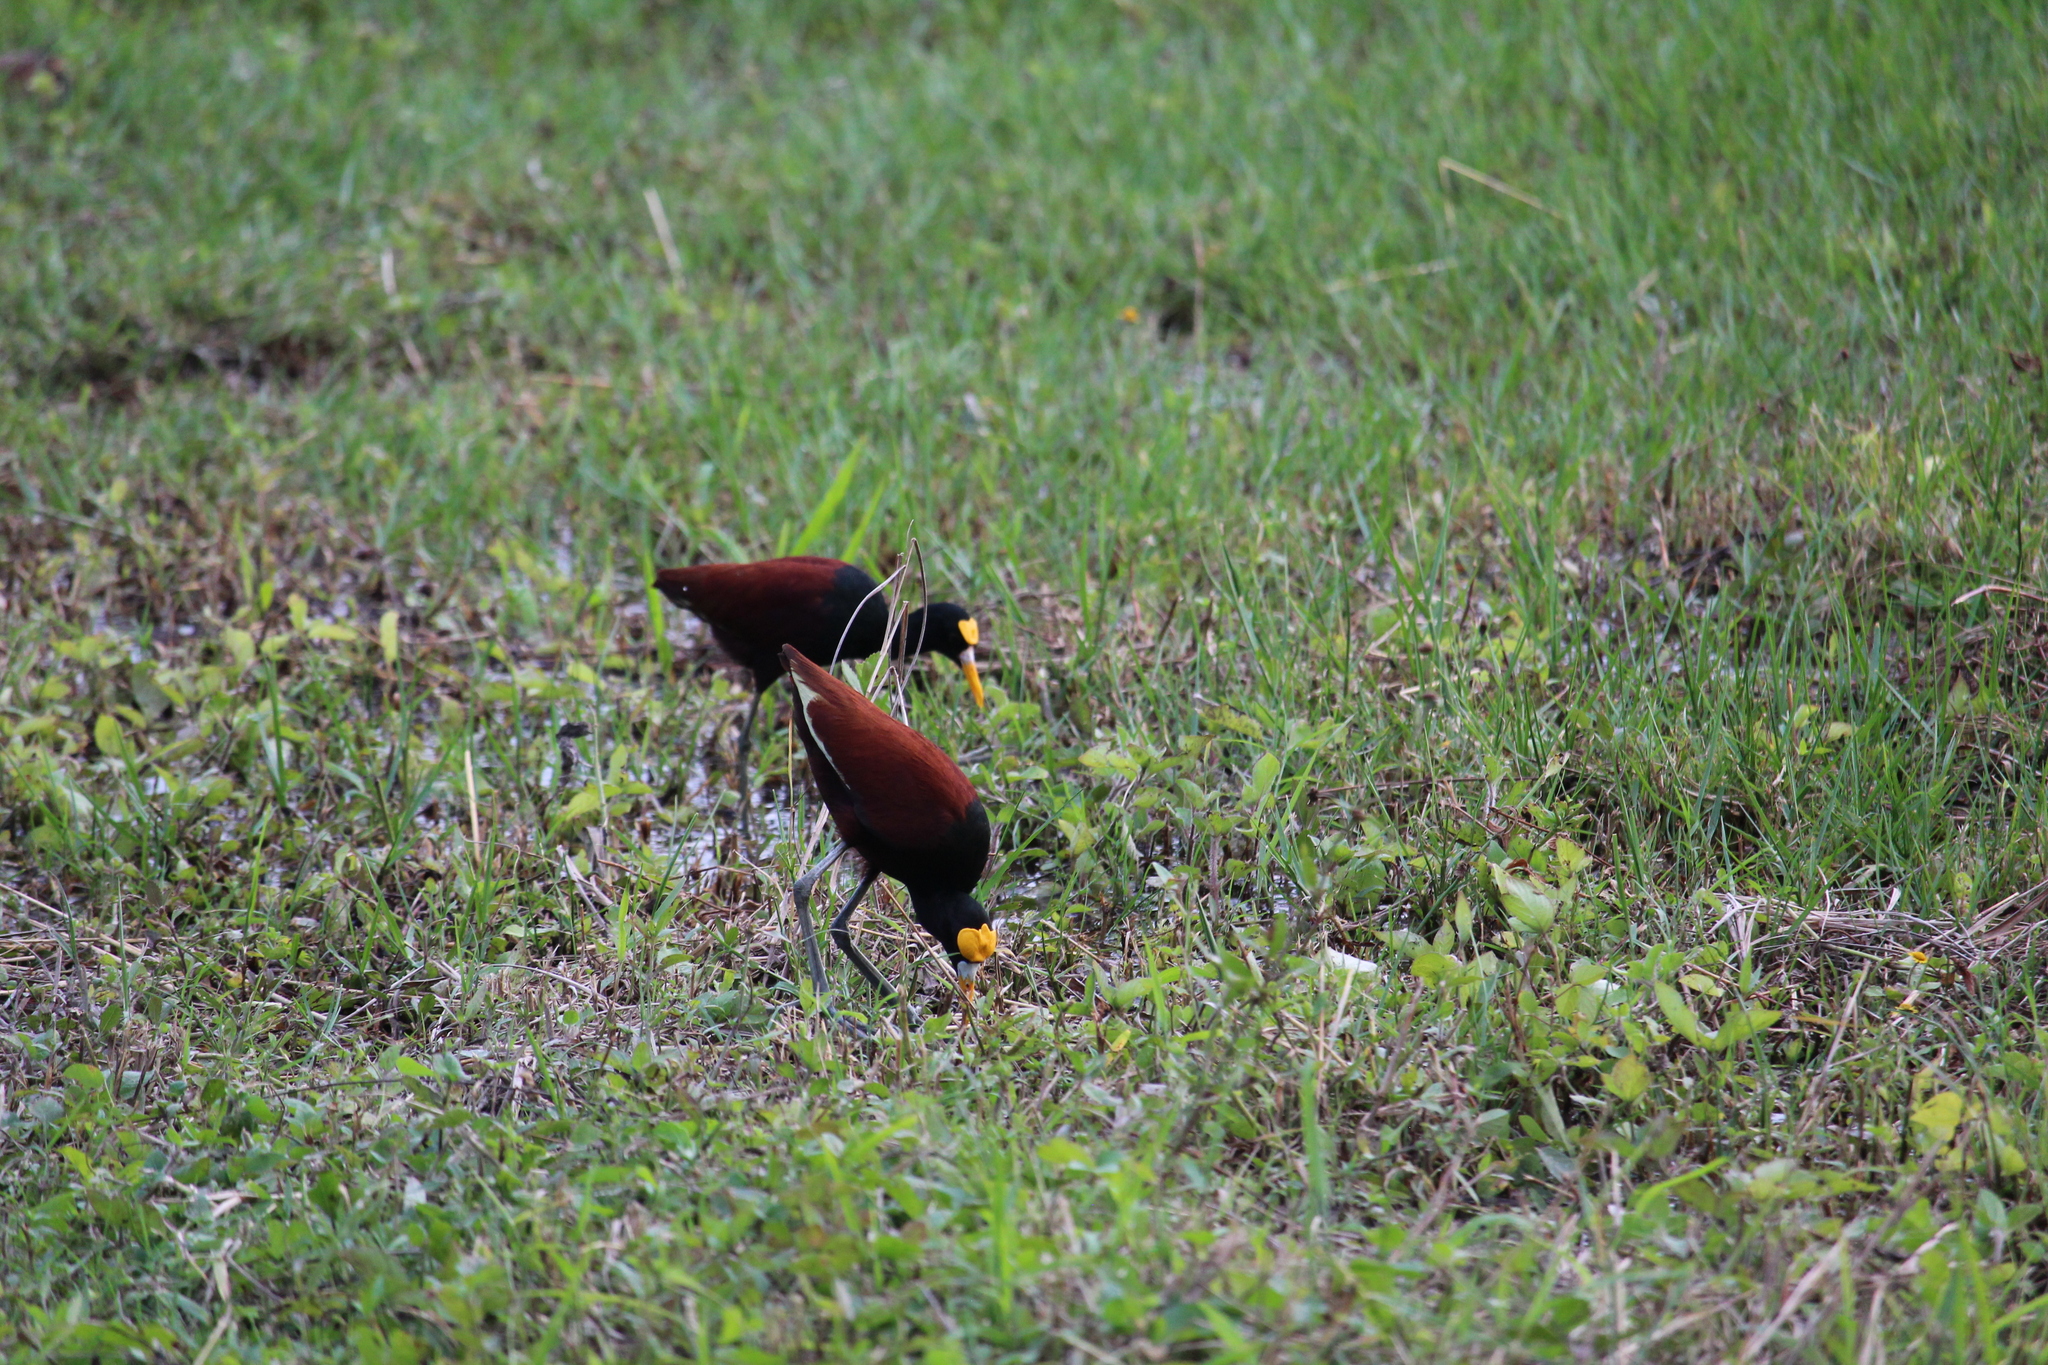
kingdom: Animalia
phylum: Chordata
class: Aves
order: Charadriiformes
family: Jacanidae
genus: Jacana
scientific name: Jacana spinosa
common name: Northern jacana
